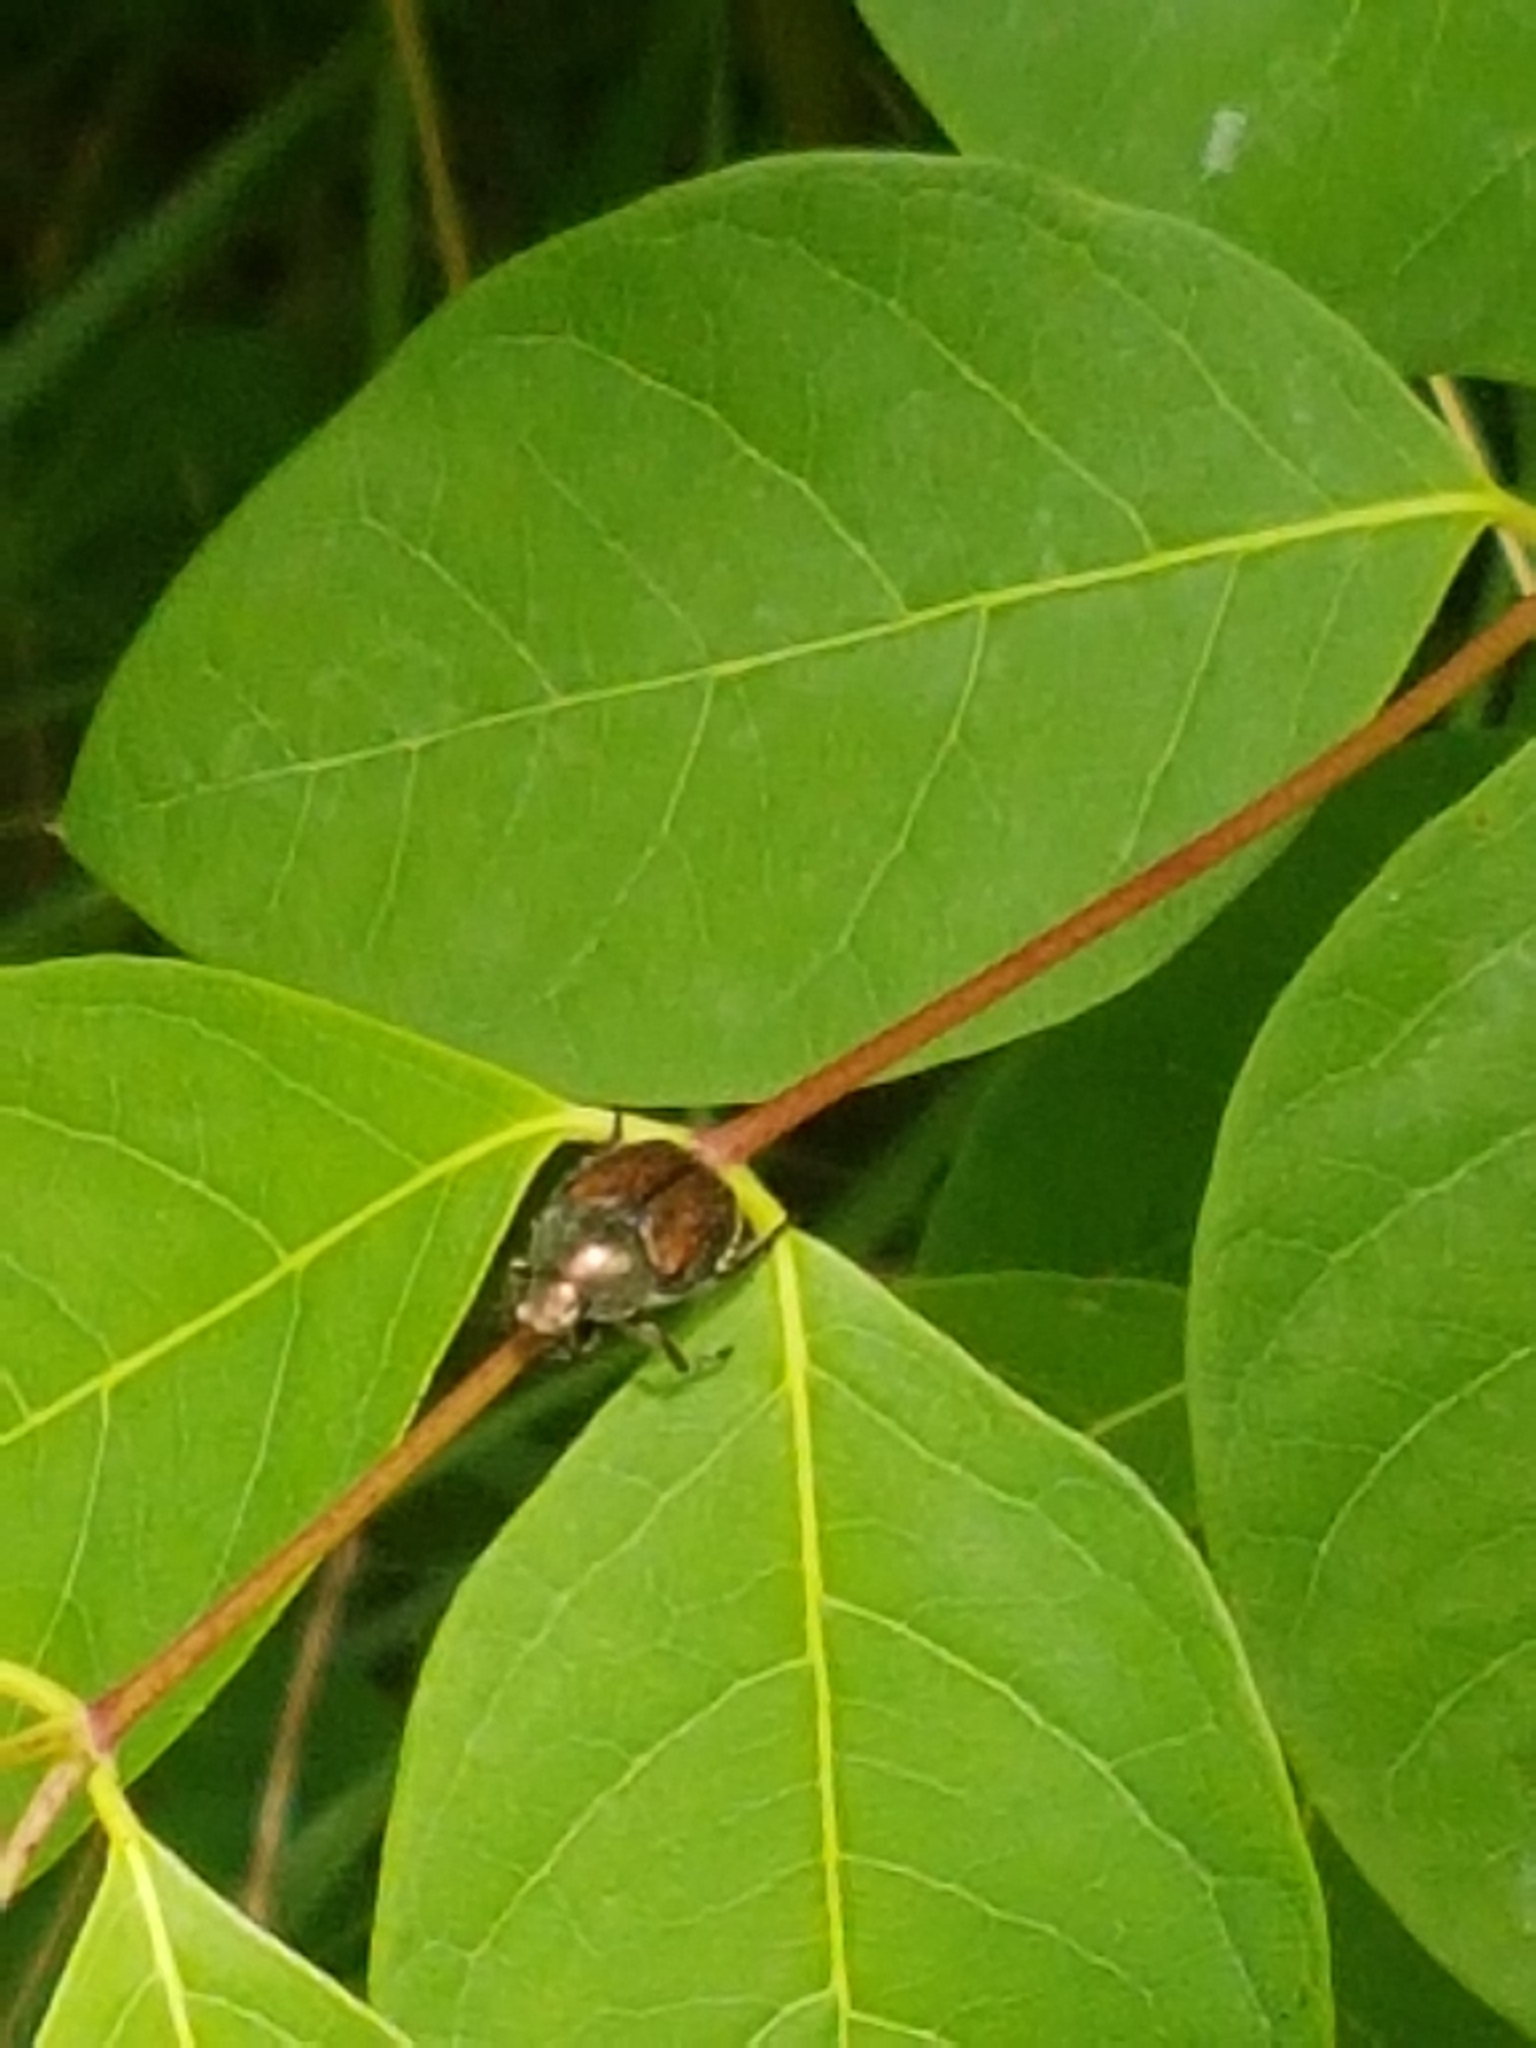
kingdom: Animalia
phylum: Arthropoda
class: Insecta
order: Coleoptera
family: Scarabaeidae
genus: Popillia
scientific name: Popillia japonica
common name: Japanese beetle
